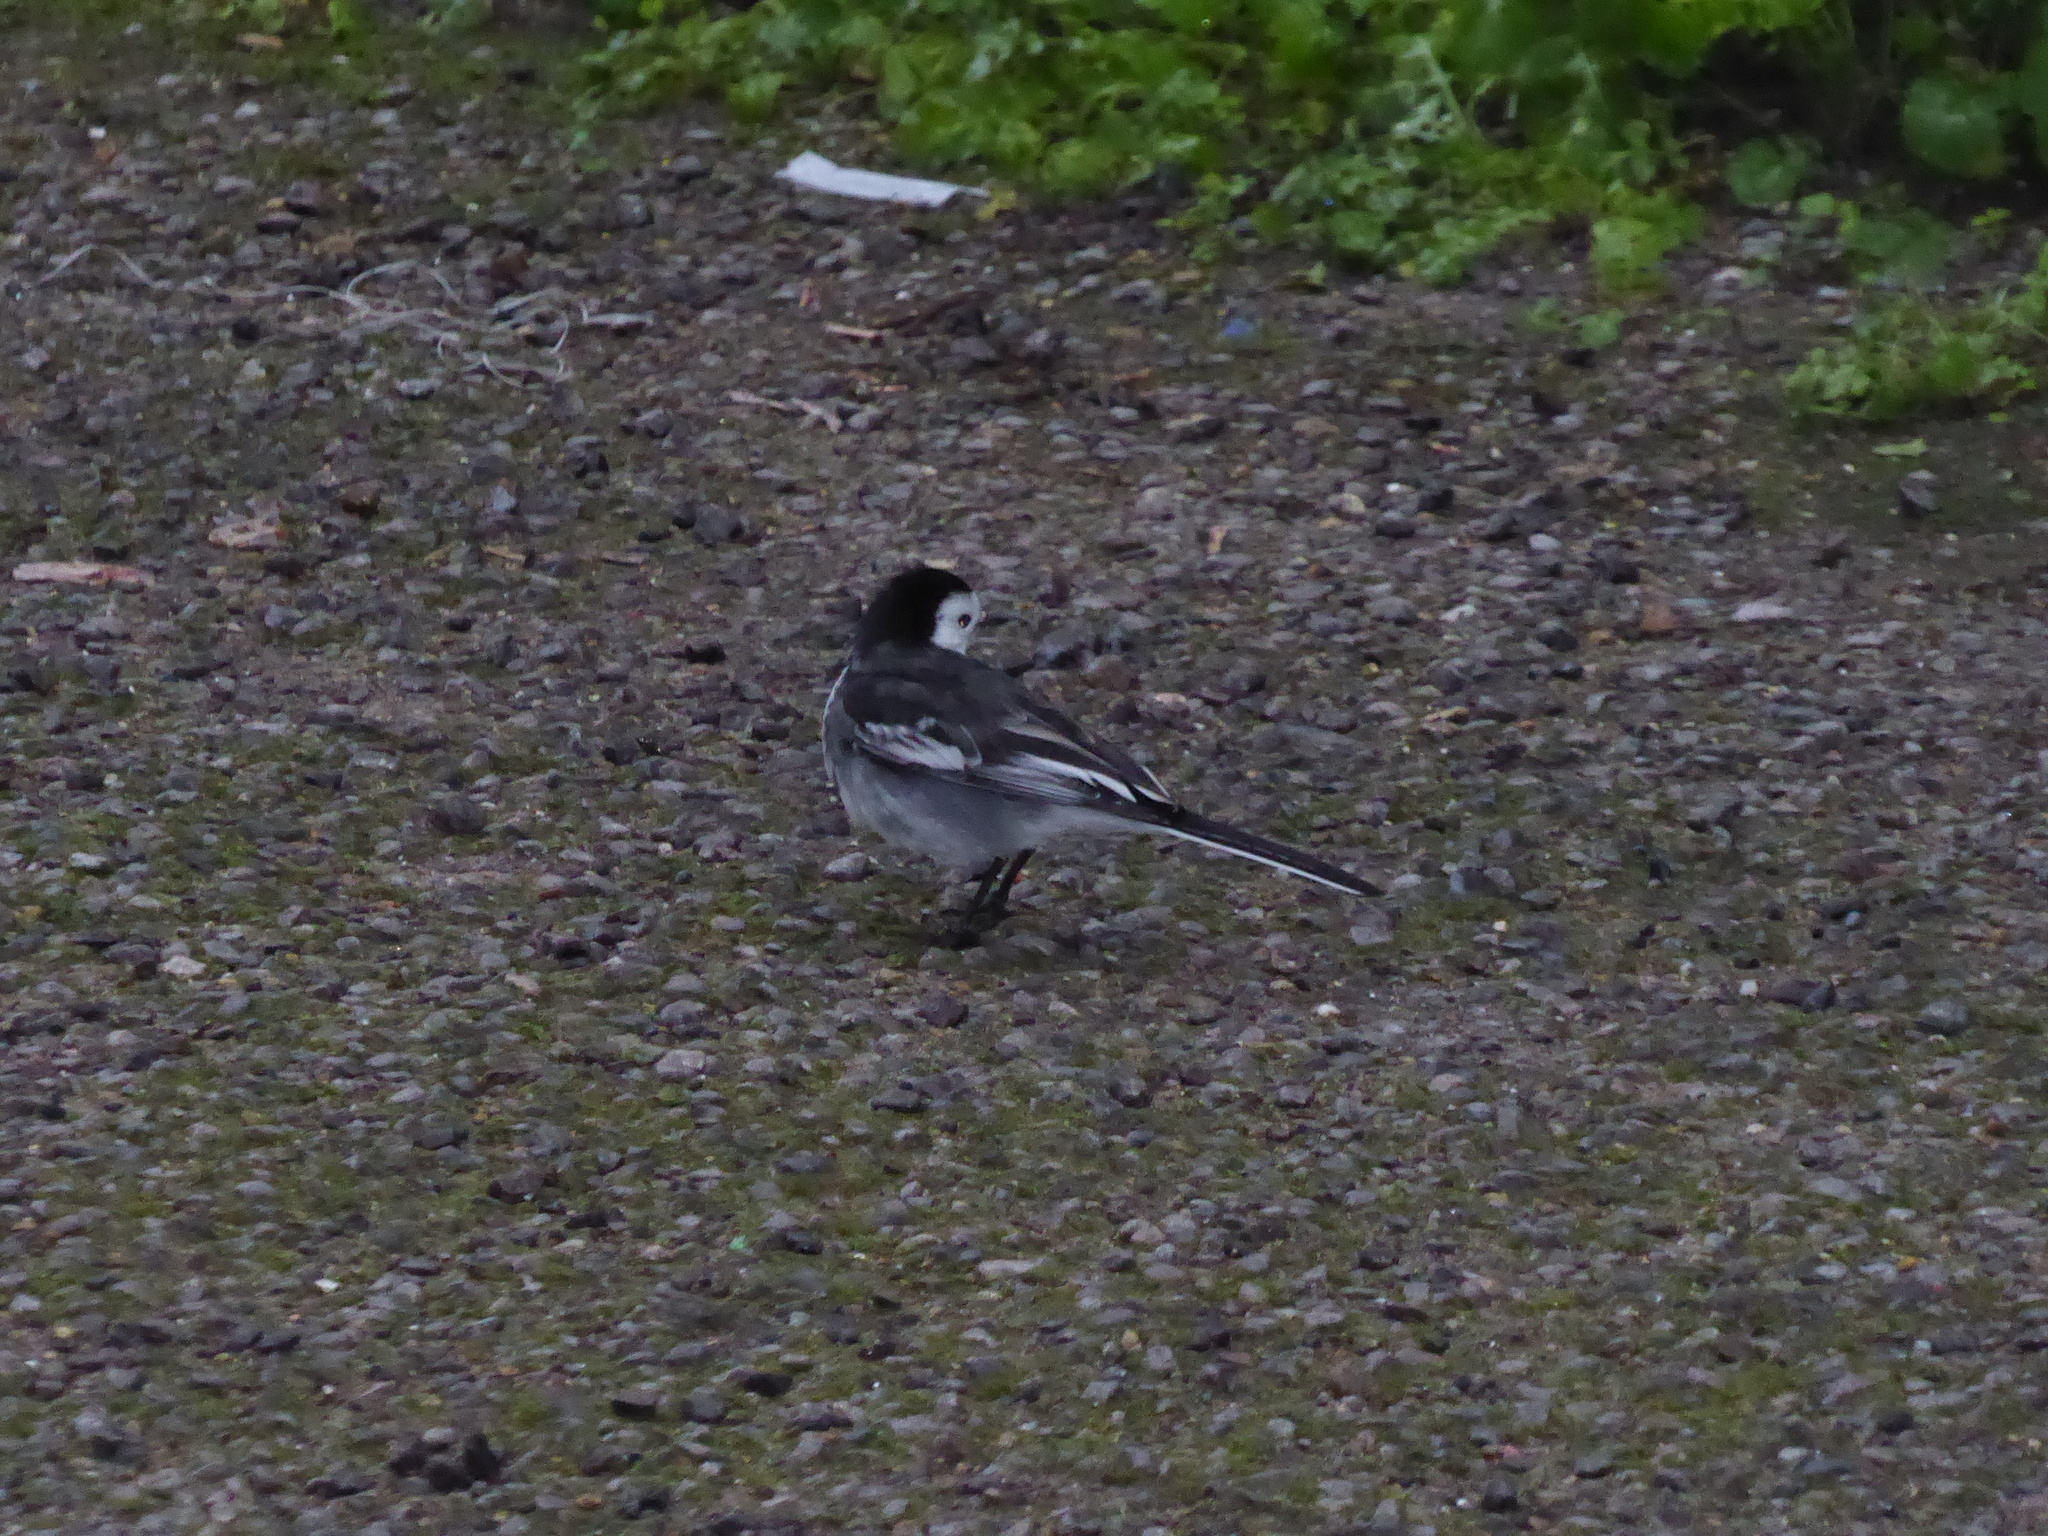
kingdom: Animalia
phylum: Chordata
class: Aves
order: Passeriformes
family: Motacillidae
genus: Motacilla
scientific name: Motacilla alba
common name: White wagtail
